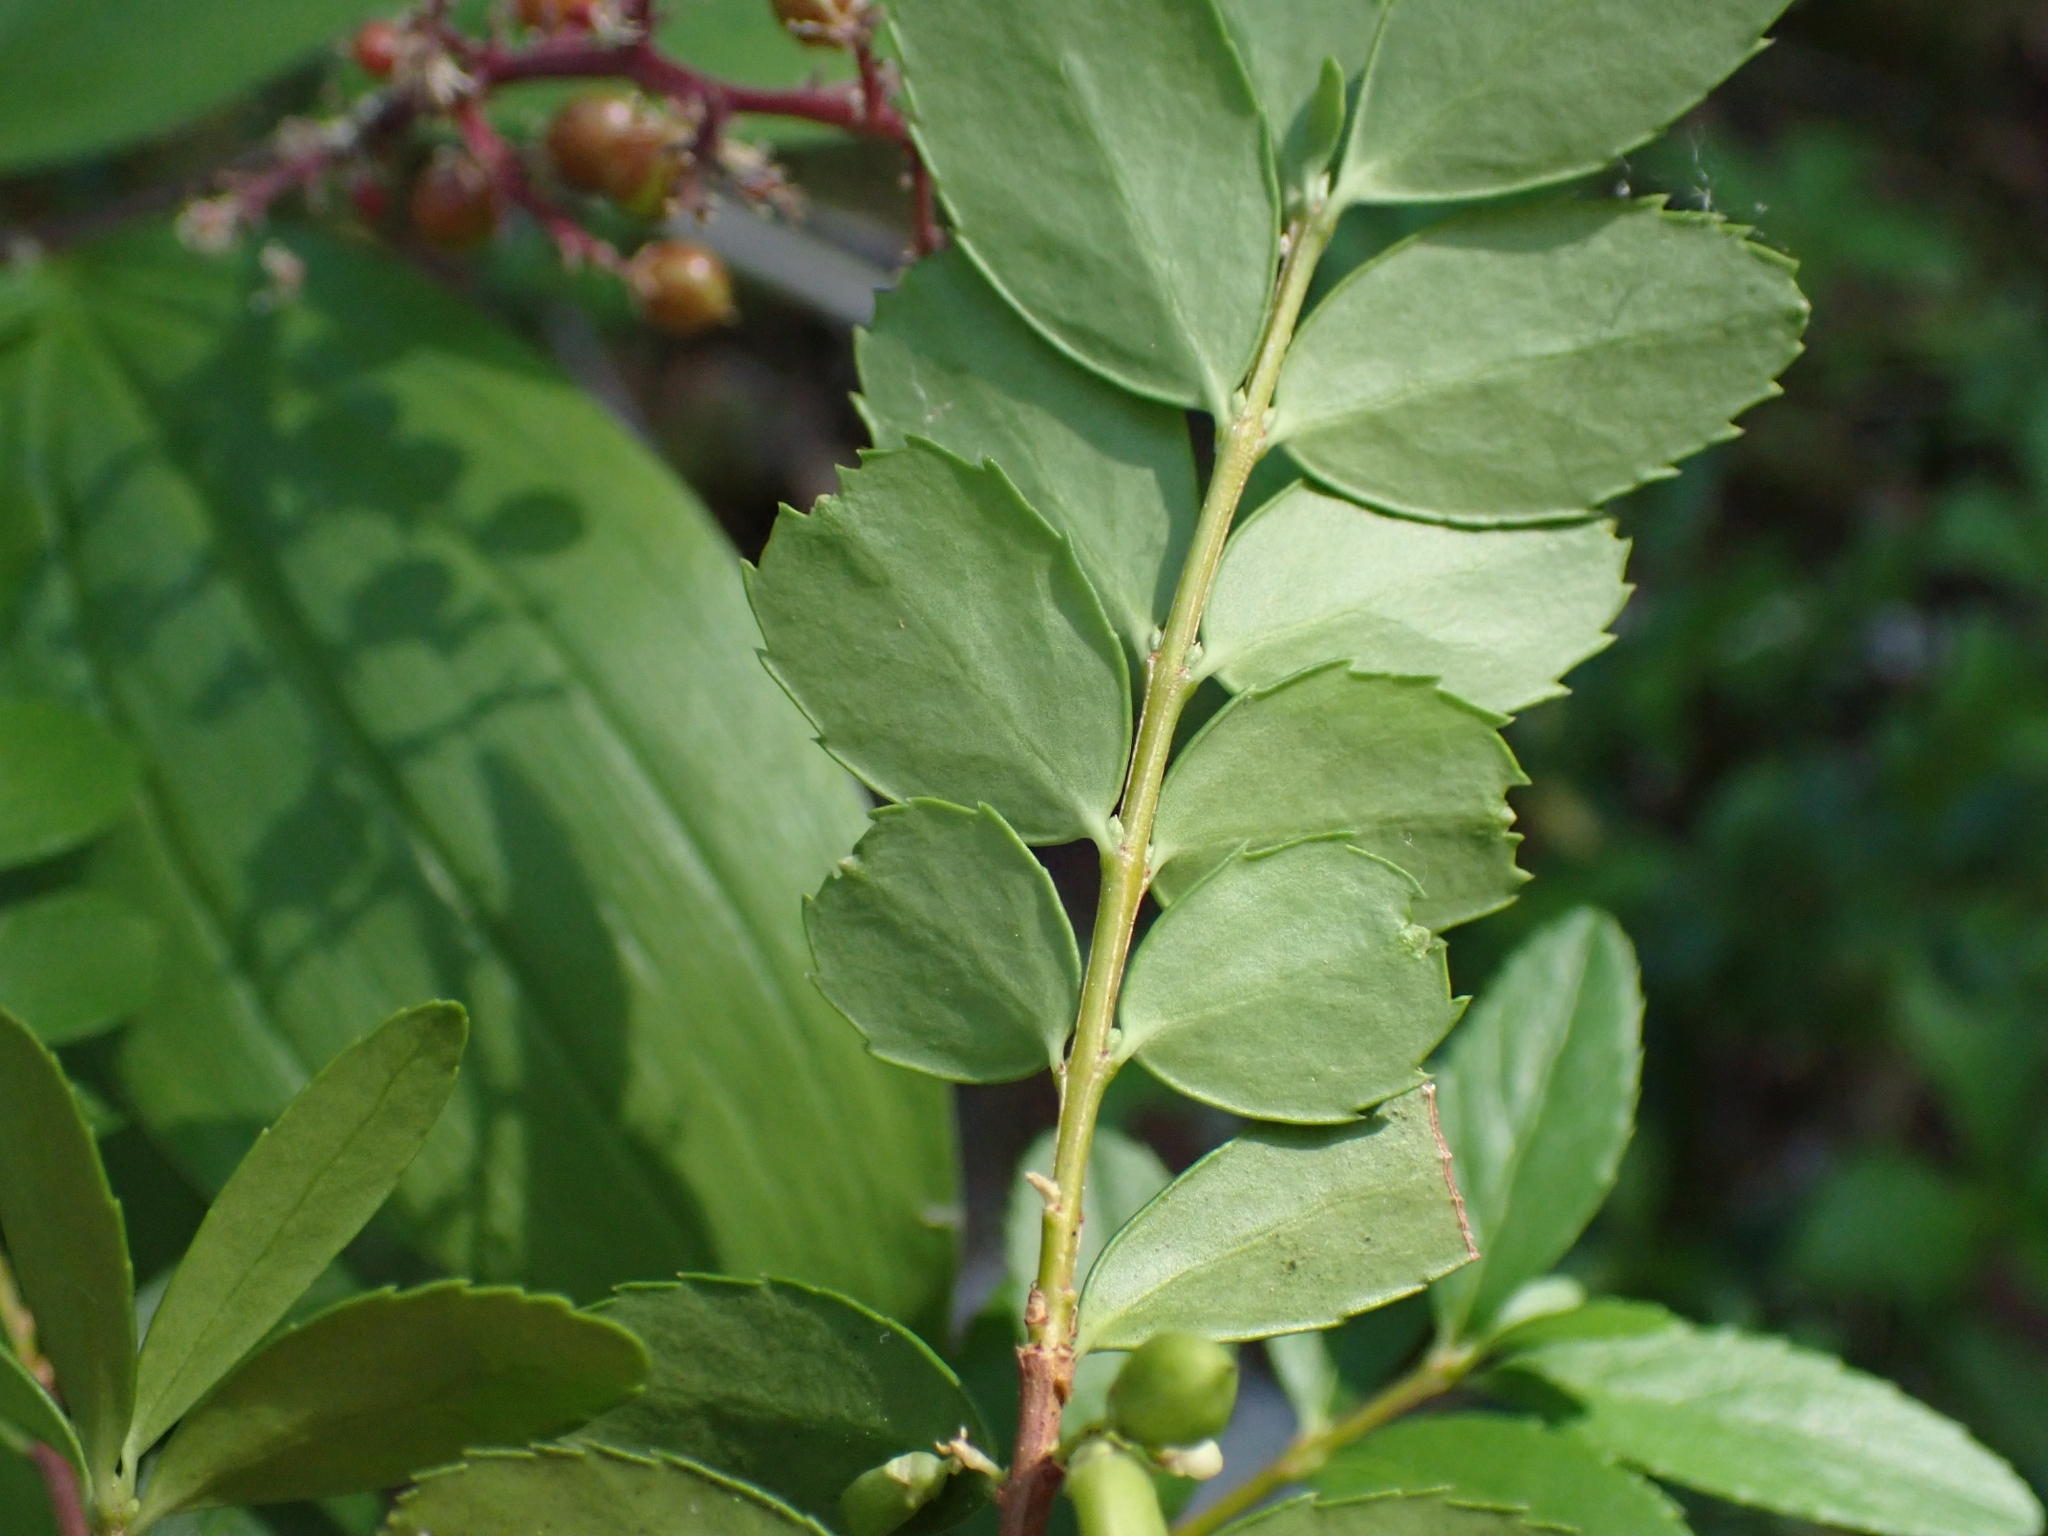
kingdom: Plantae
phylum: Tracheophyta
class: Magnoliopsida
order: Celastrales
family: Celastraceae
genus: Paxistima
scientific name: Paxistima myrsinites
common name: Mountain-lover
